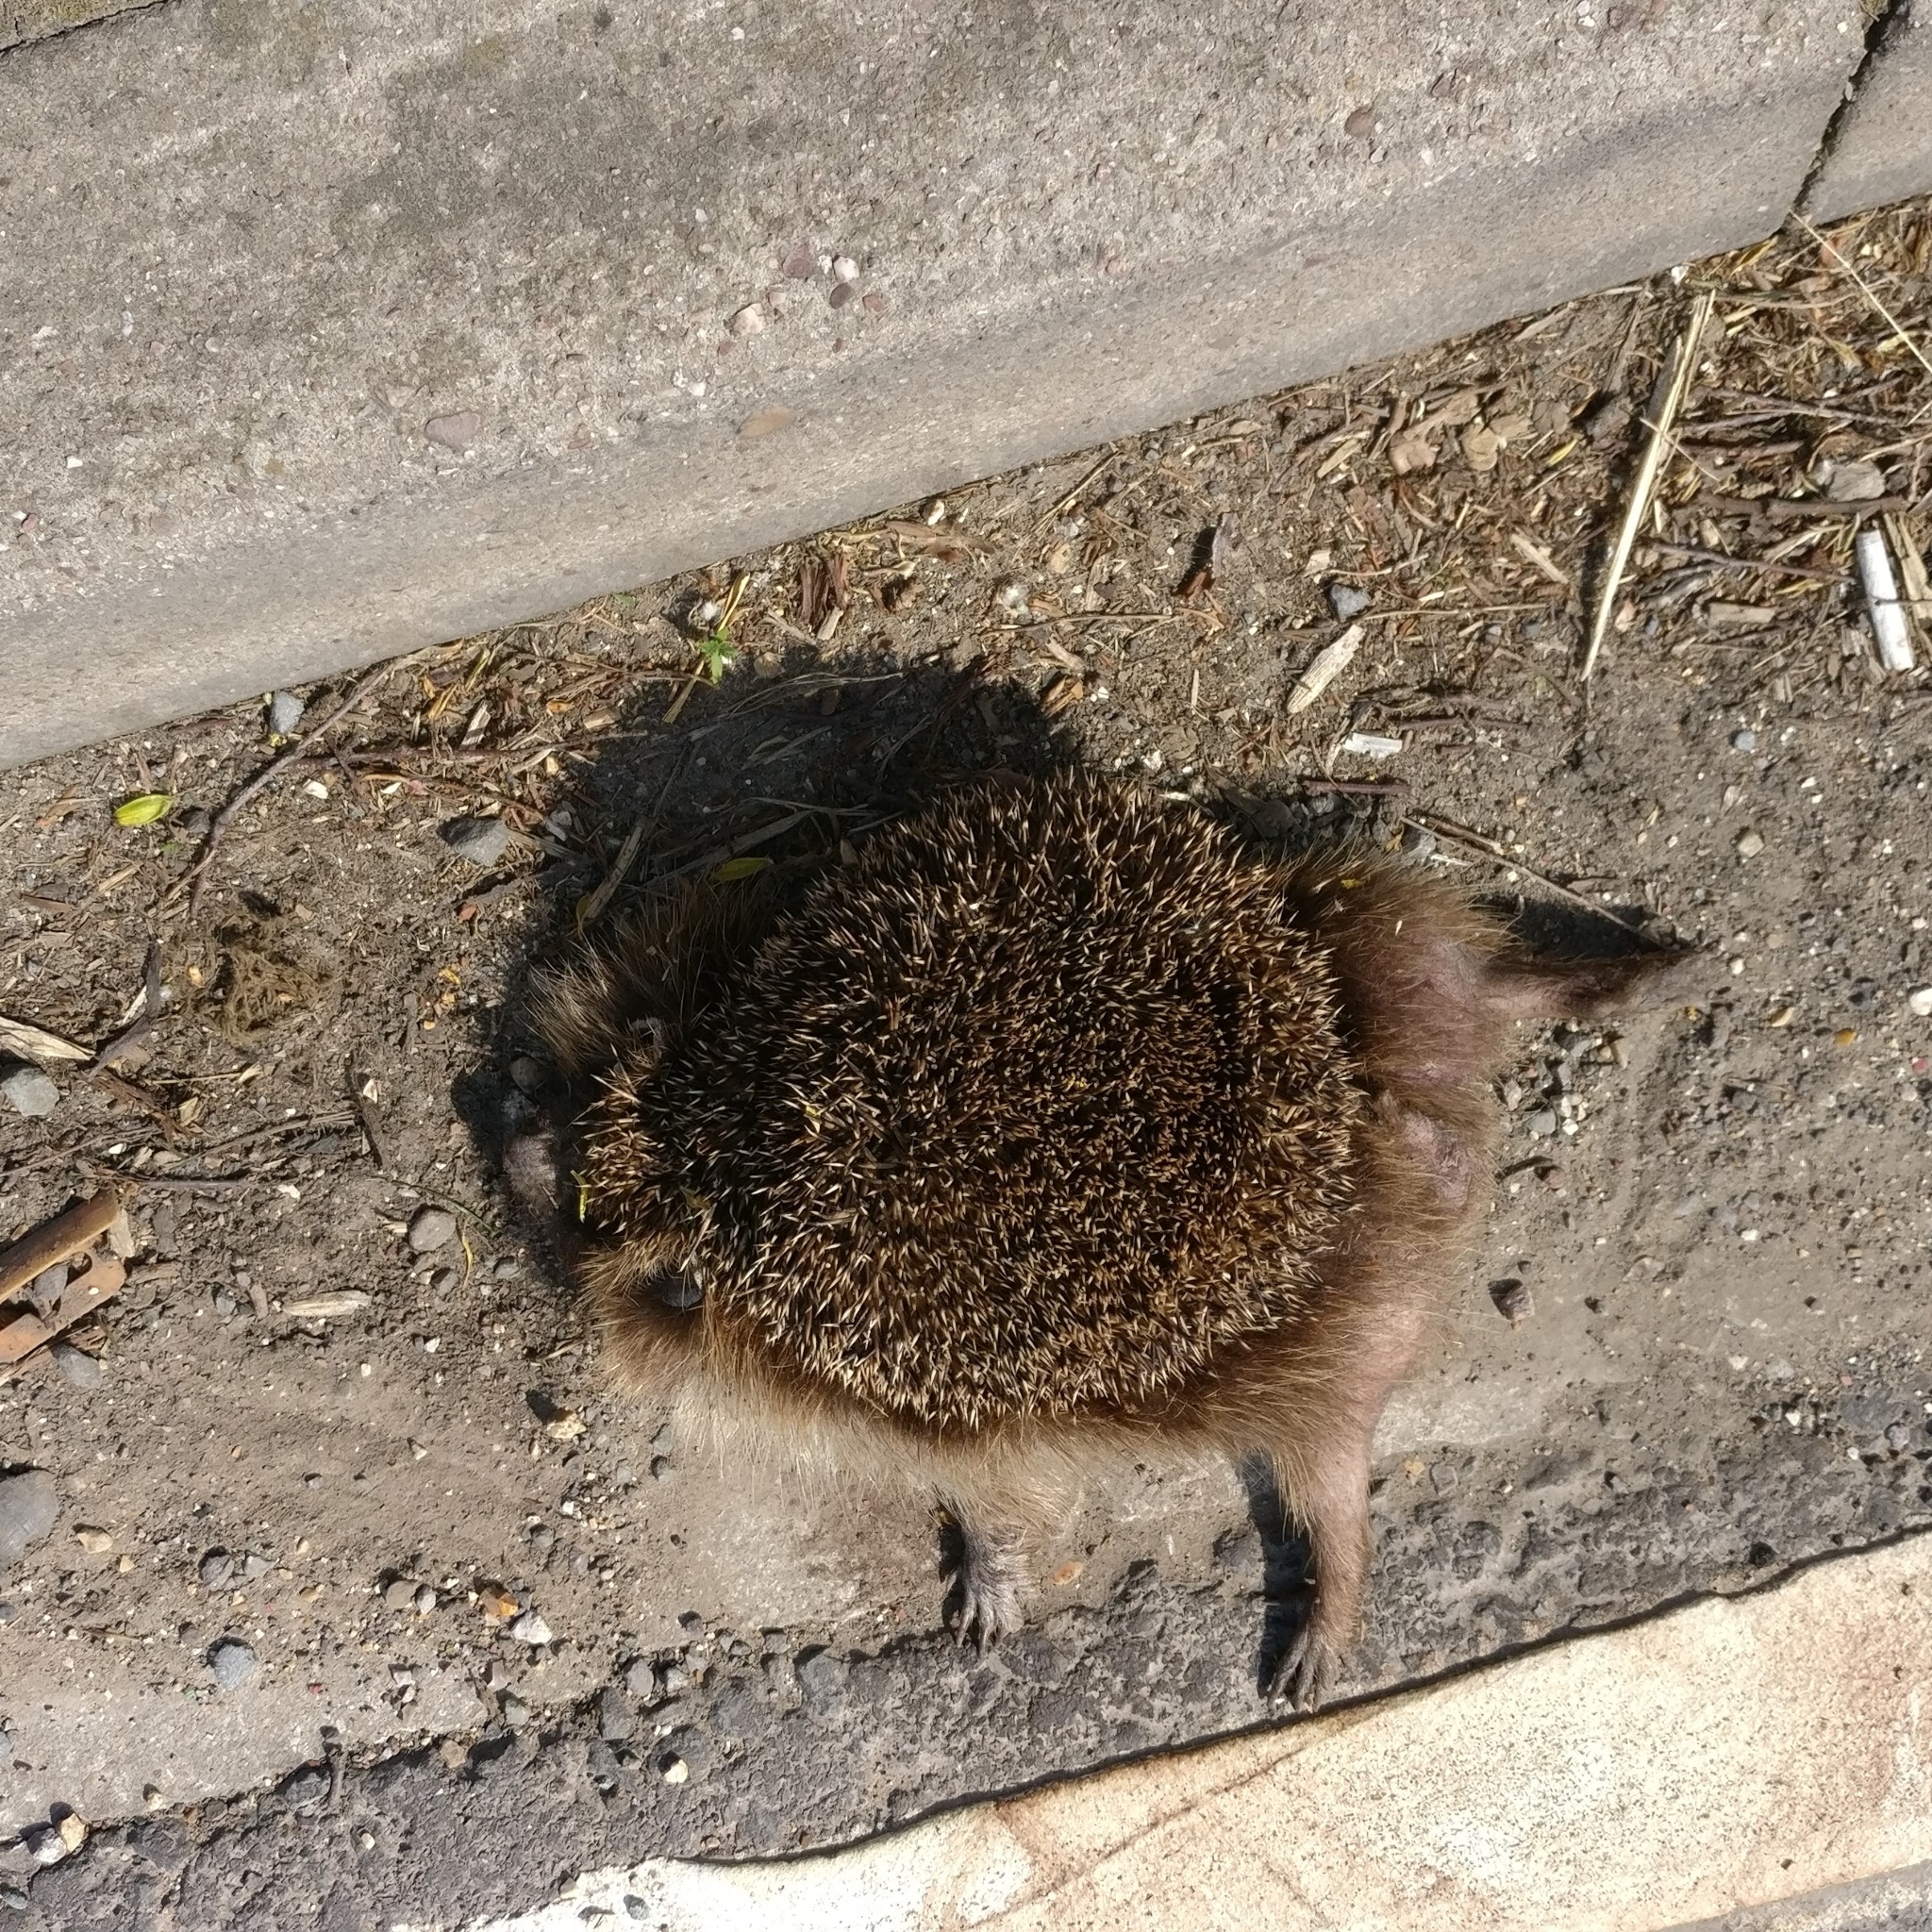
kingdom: Animalia
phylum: Chordata
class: Mammalia
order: Erinaceomorpha
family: Erinaceidae
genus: Erinaceus
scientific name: Erinaceus europaeus
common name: West european hedgehog
